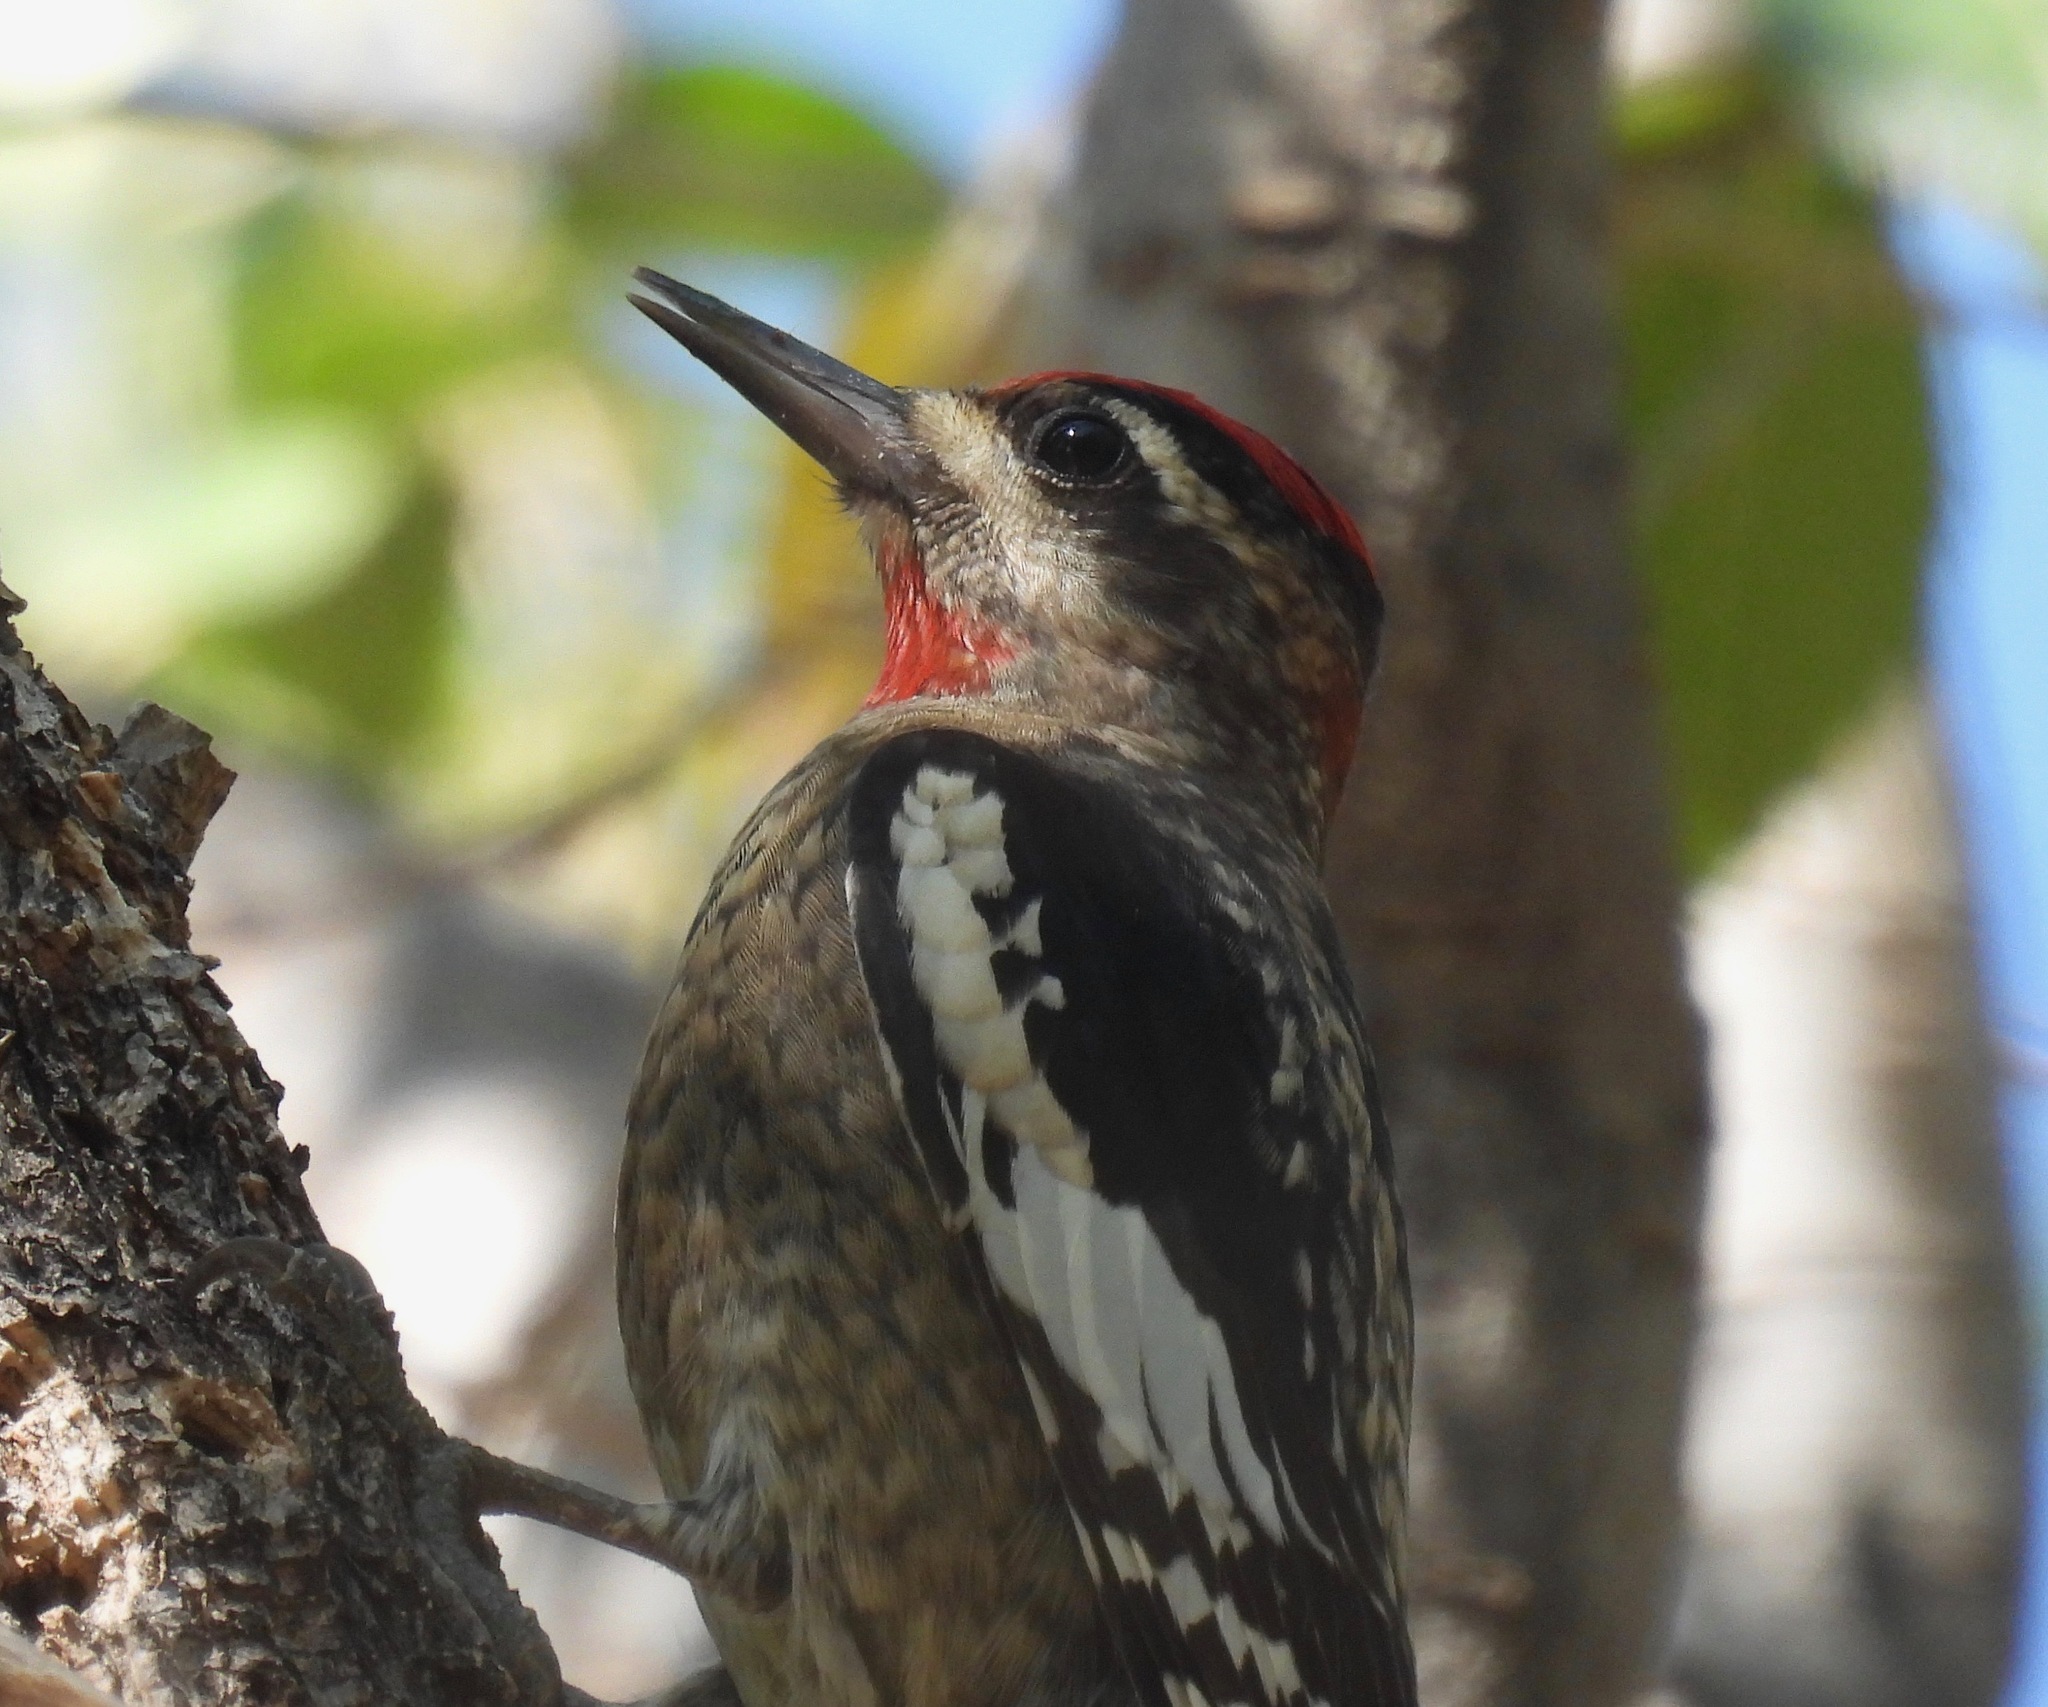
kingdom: Animalia
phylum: Chordata
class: Aves
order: Piciformes
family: Picidae
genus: Sphyrapicus
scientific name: Sphyrapicus nuchalis
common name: Red-naped sapsucker
